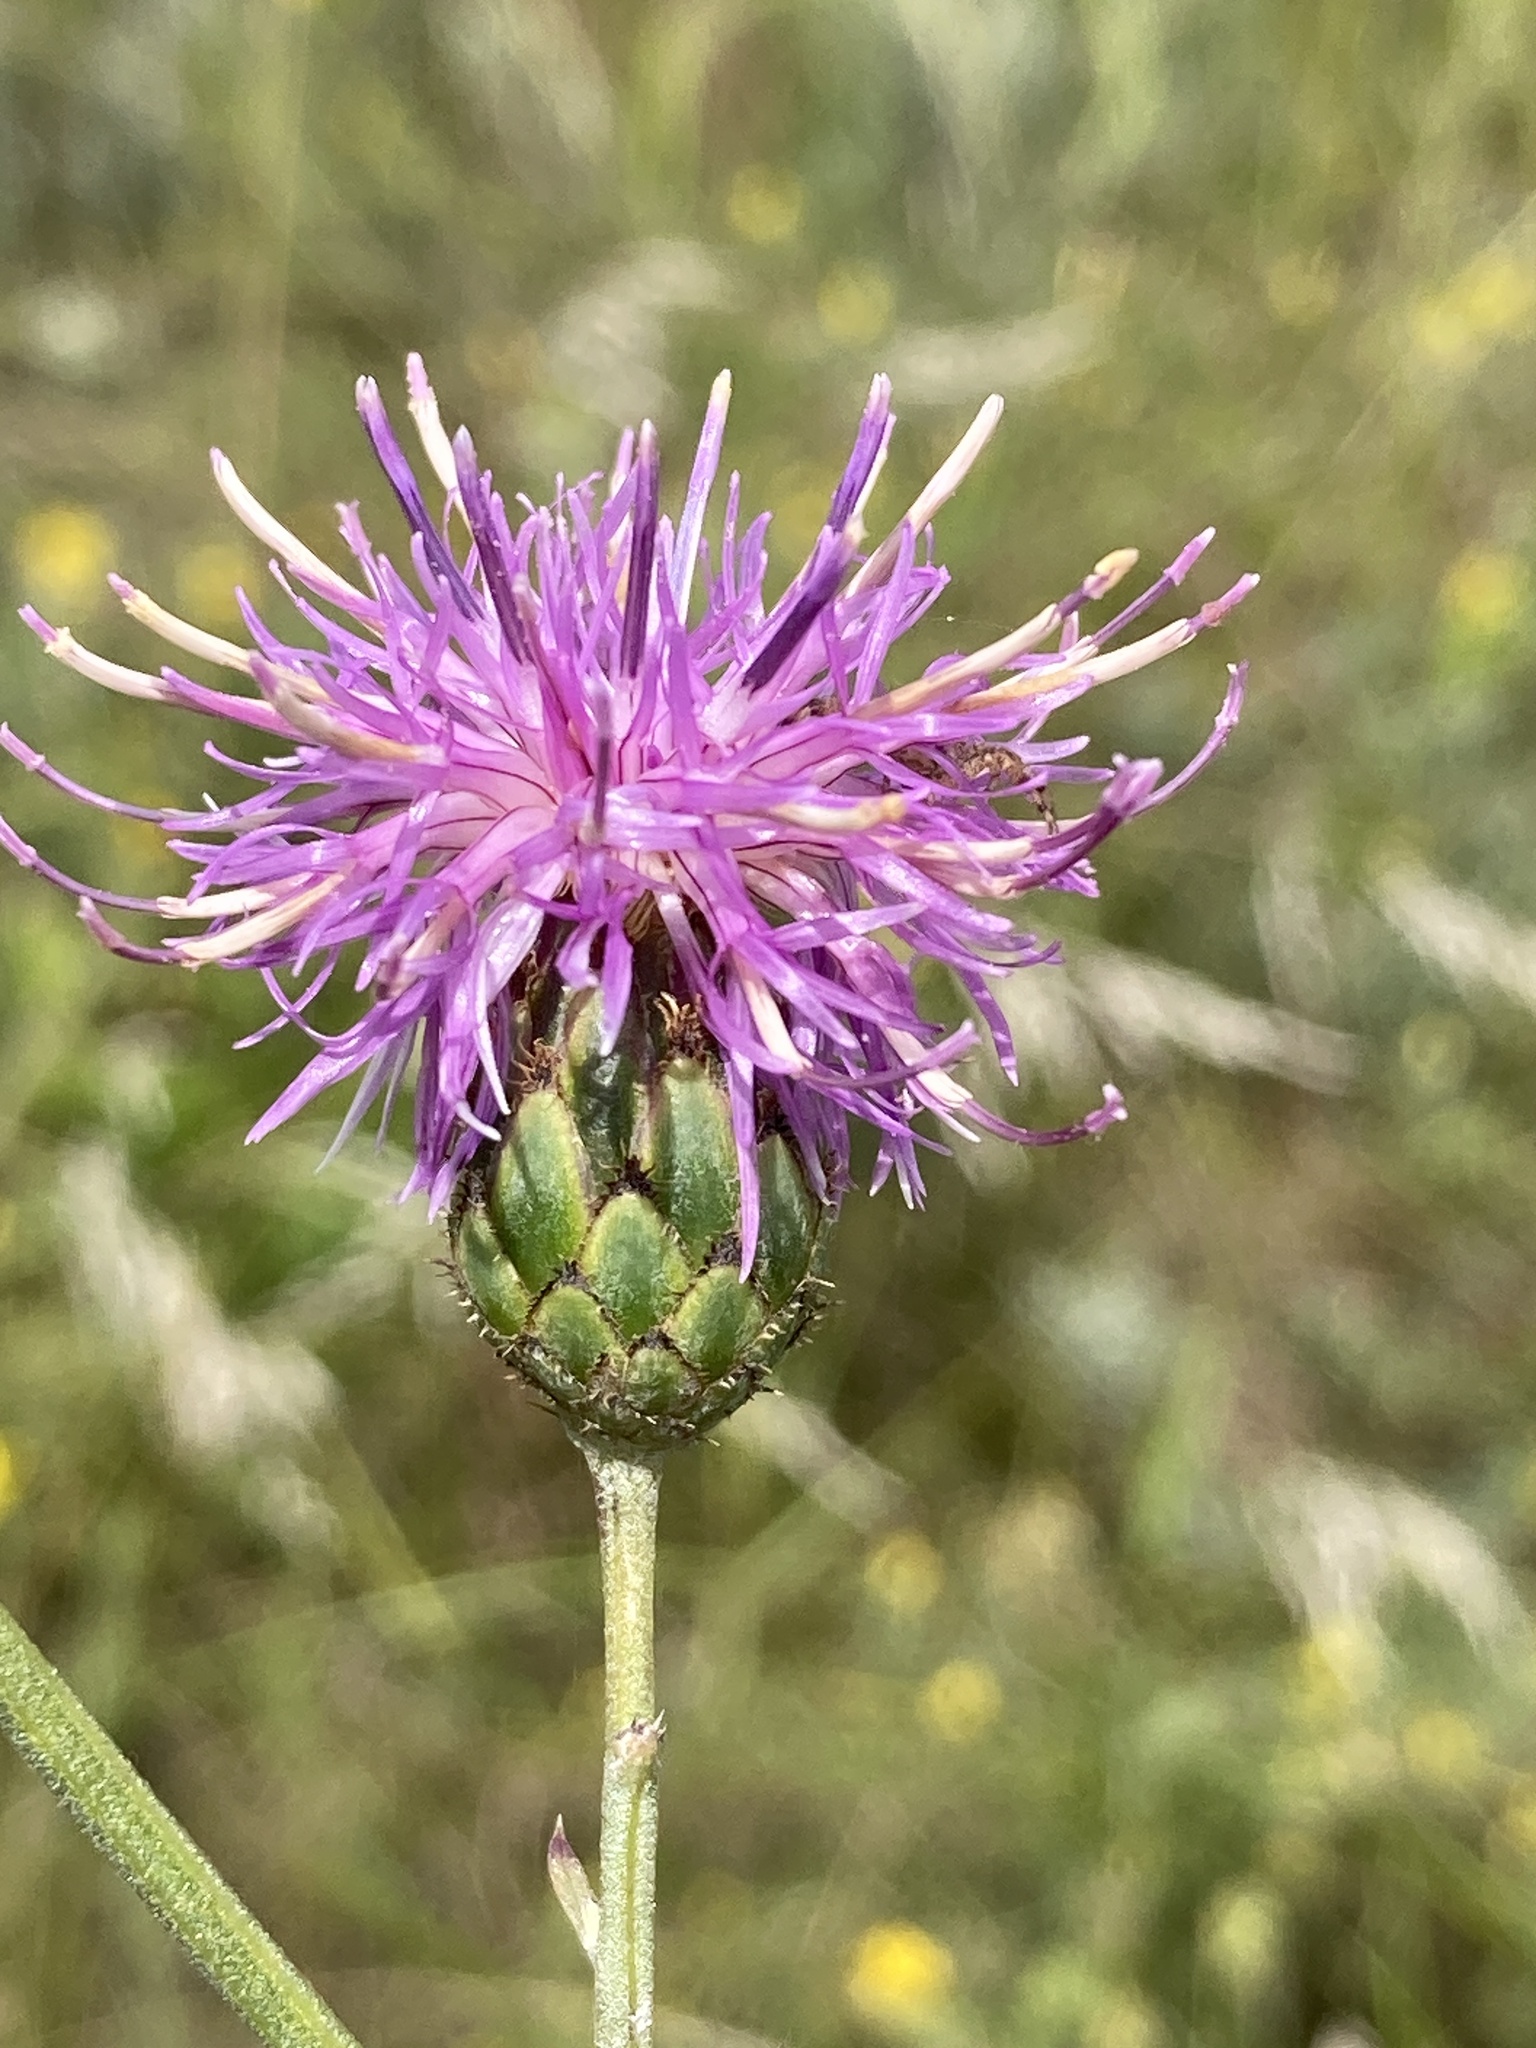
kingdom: Plantae
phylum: Tracheophyta
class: Magnoliopsida
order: Asterales
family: Asteraceae
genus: Centaurea
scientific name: Centaurea scabiosa
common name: Greater knapweed
